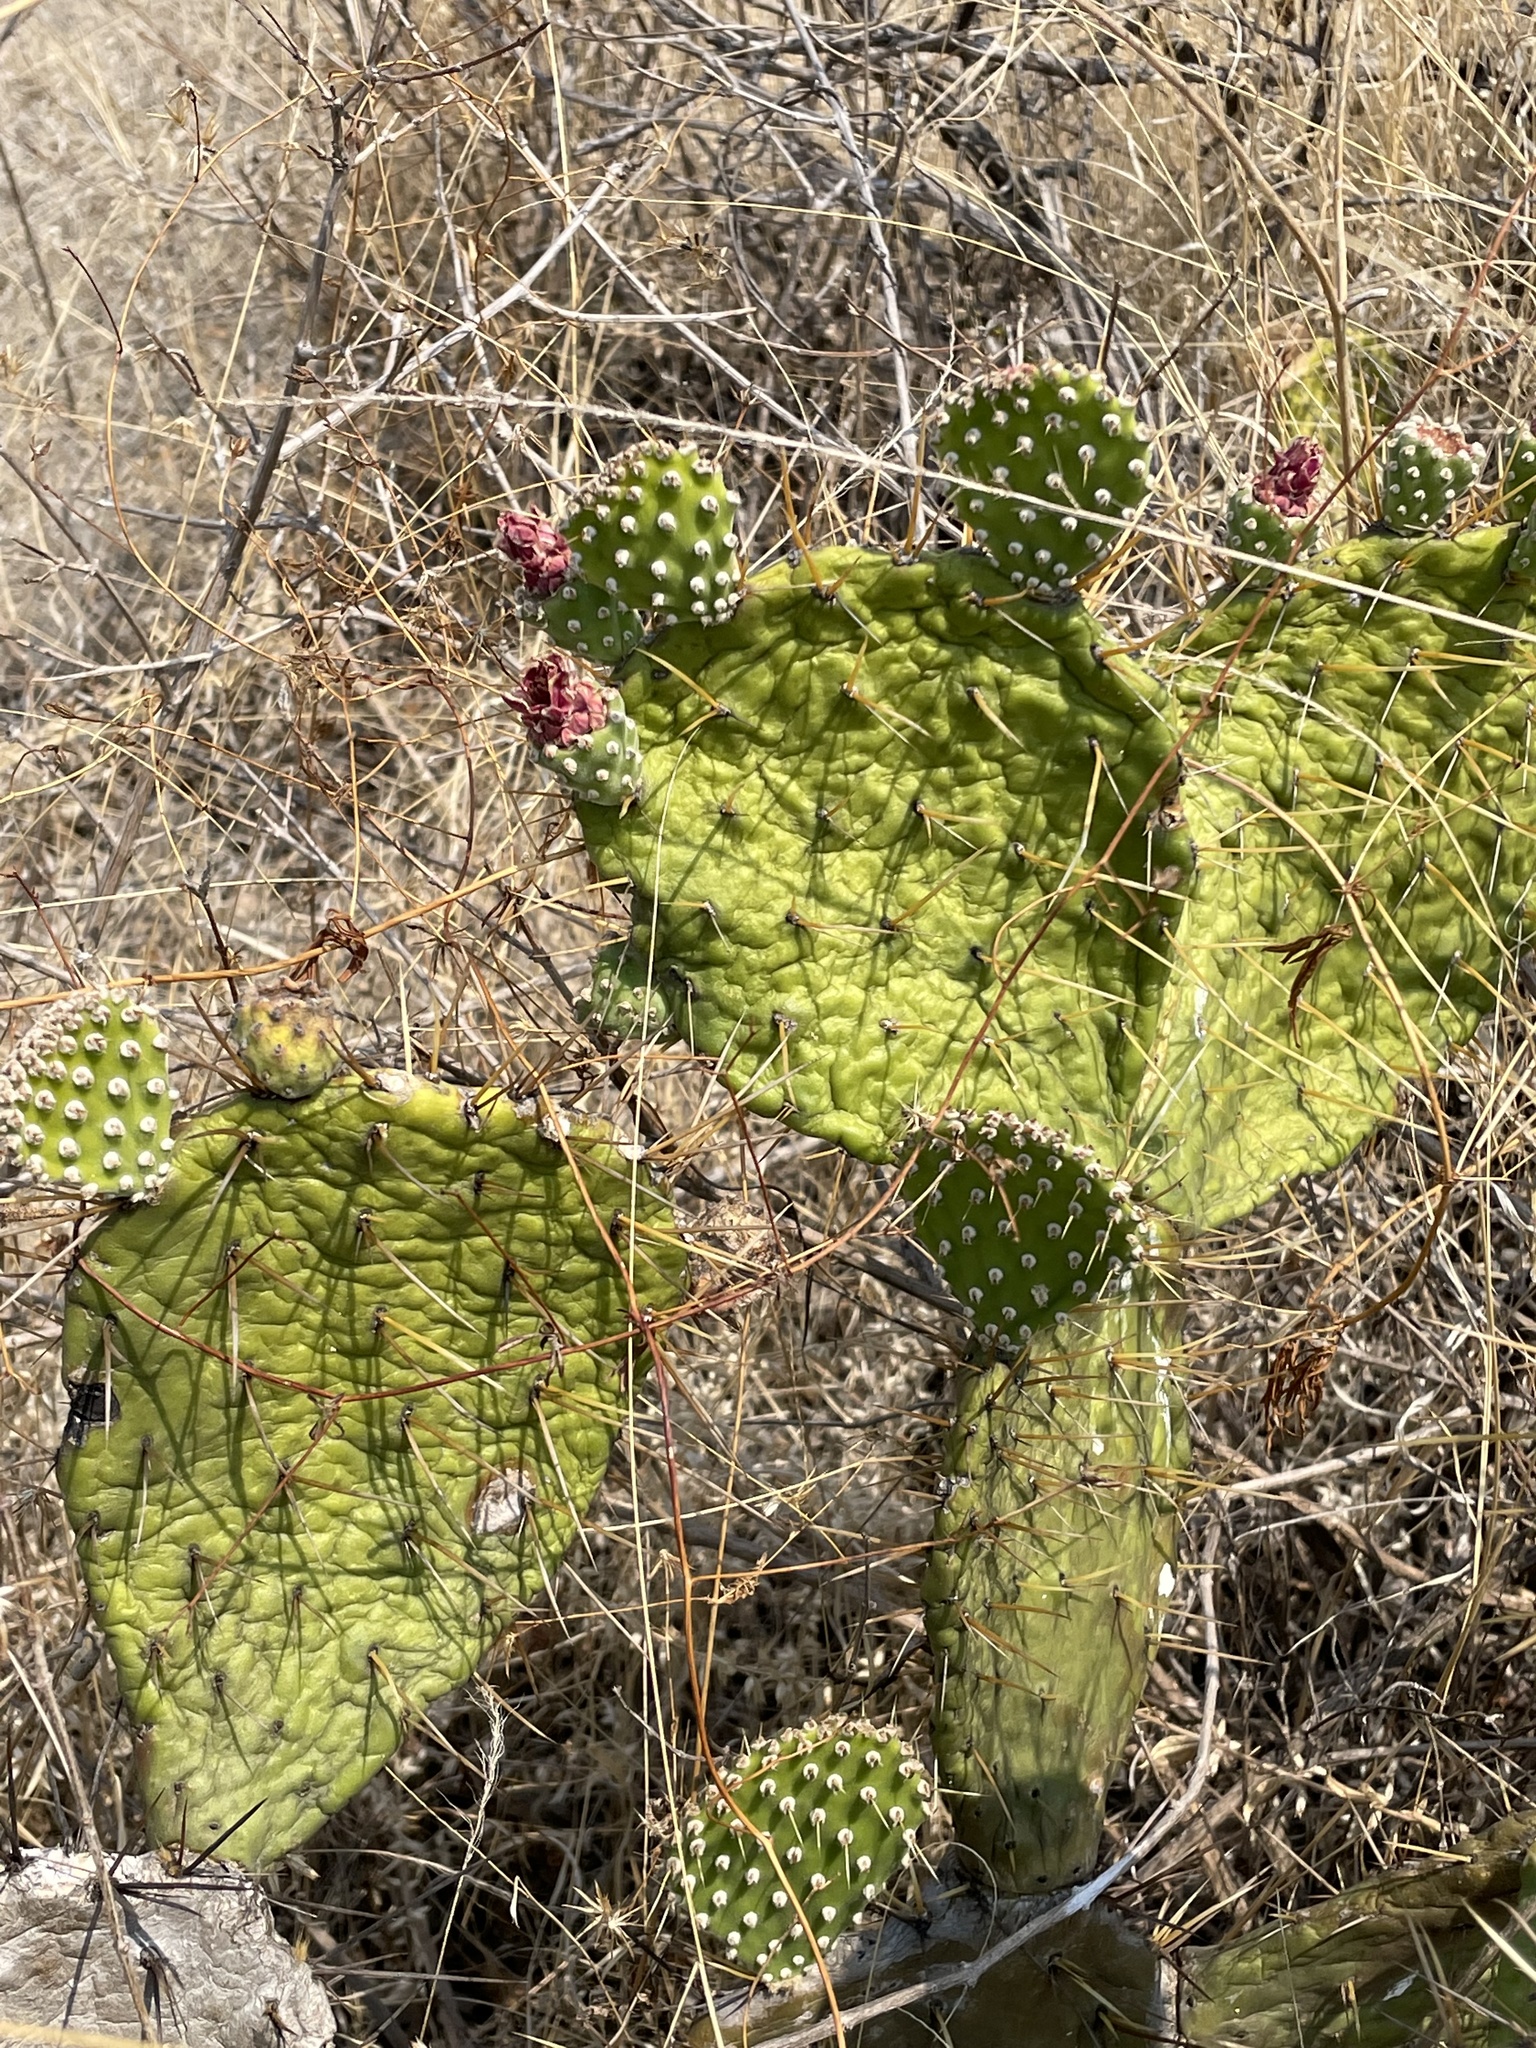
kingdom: Plantae
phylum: Tracheophyta
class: Magnoliopsida
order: Caryophyllales
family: Cactaceae
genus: Opuntia
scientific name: Opuntia depressa
